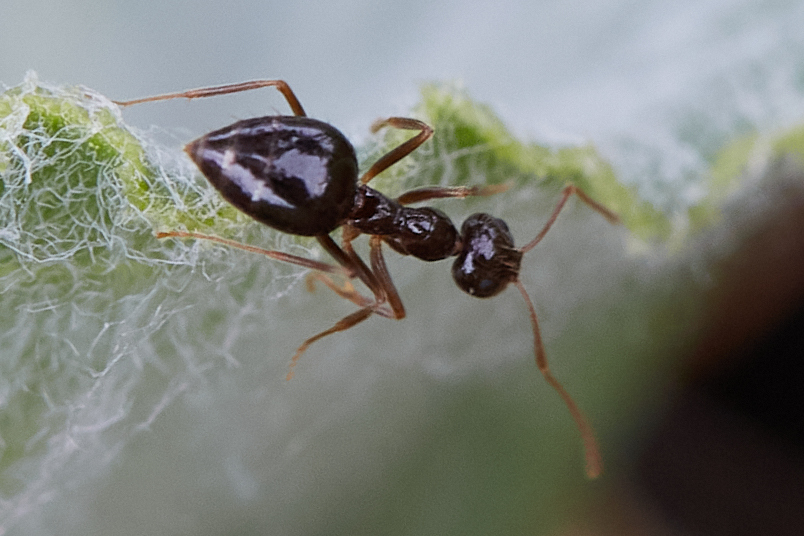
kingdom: Animalia
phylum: Arthropoda
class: Insecta
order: Hymenoptera
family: Formicidae
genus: Prenolepis
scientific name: Prenolepis imparis
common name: Small honey ant
